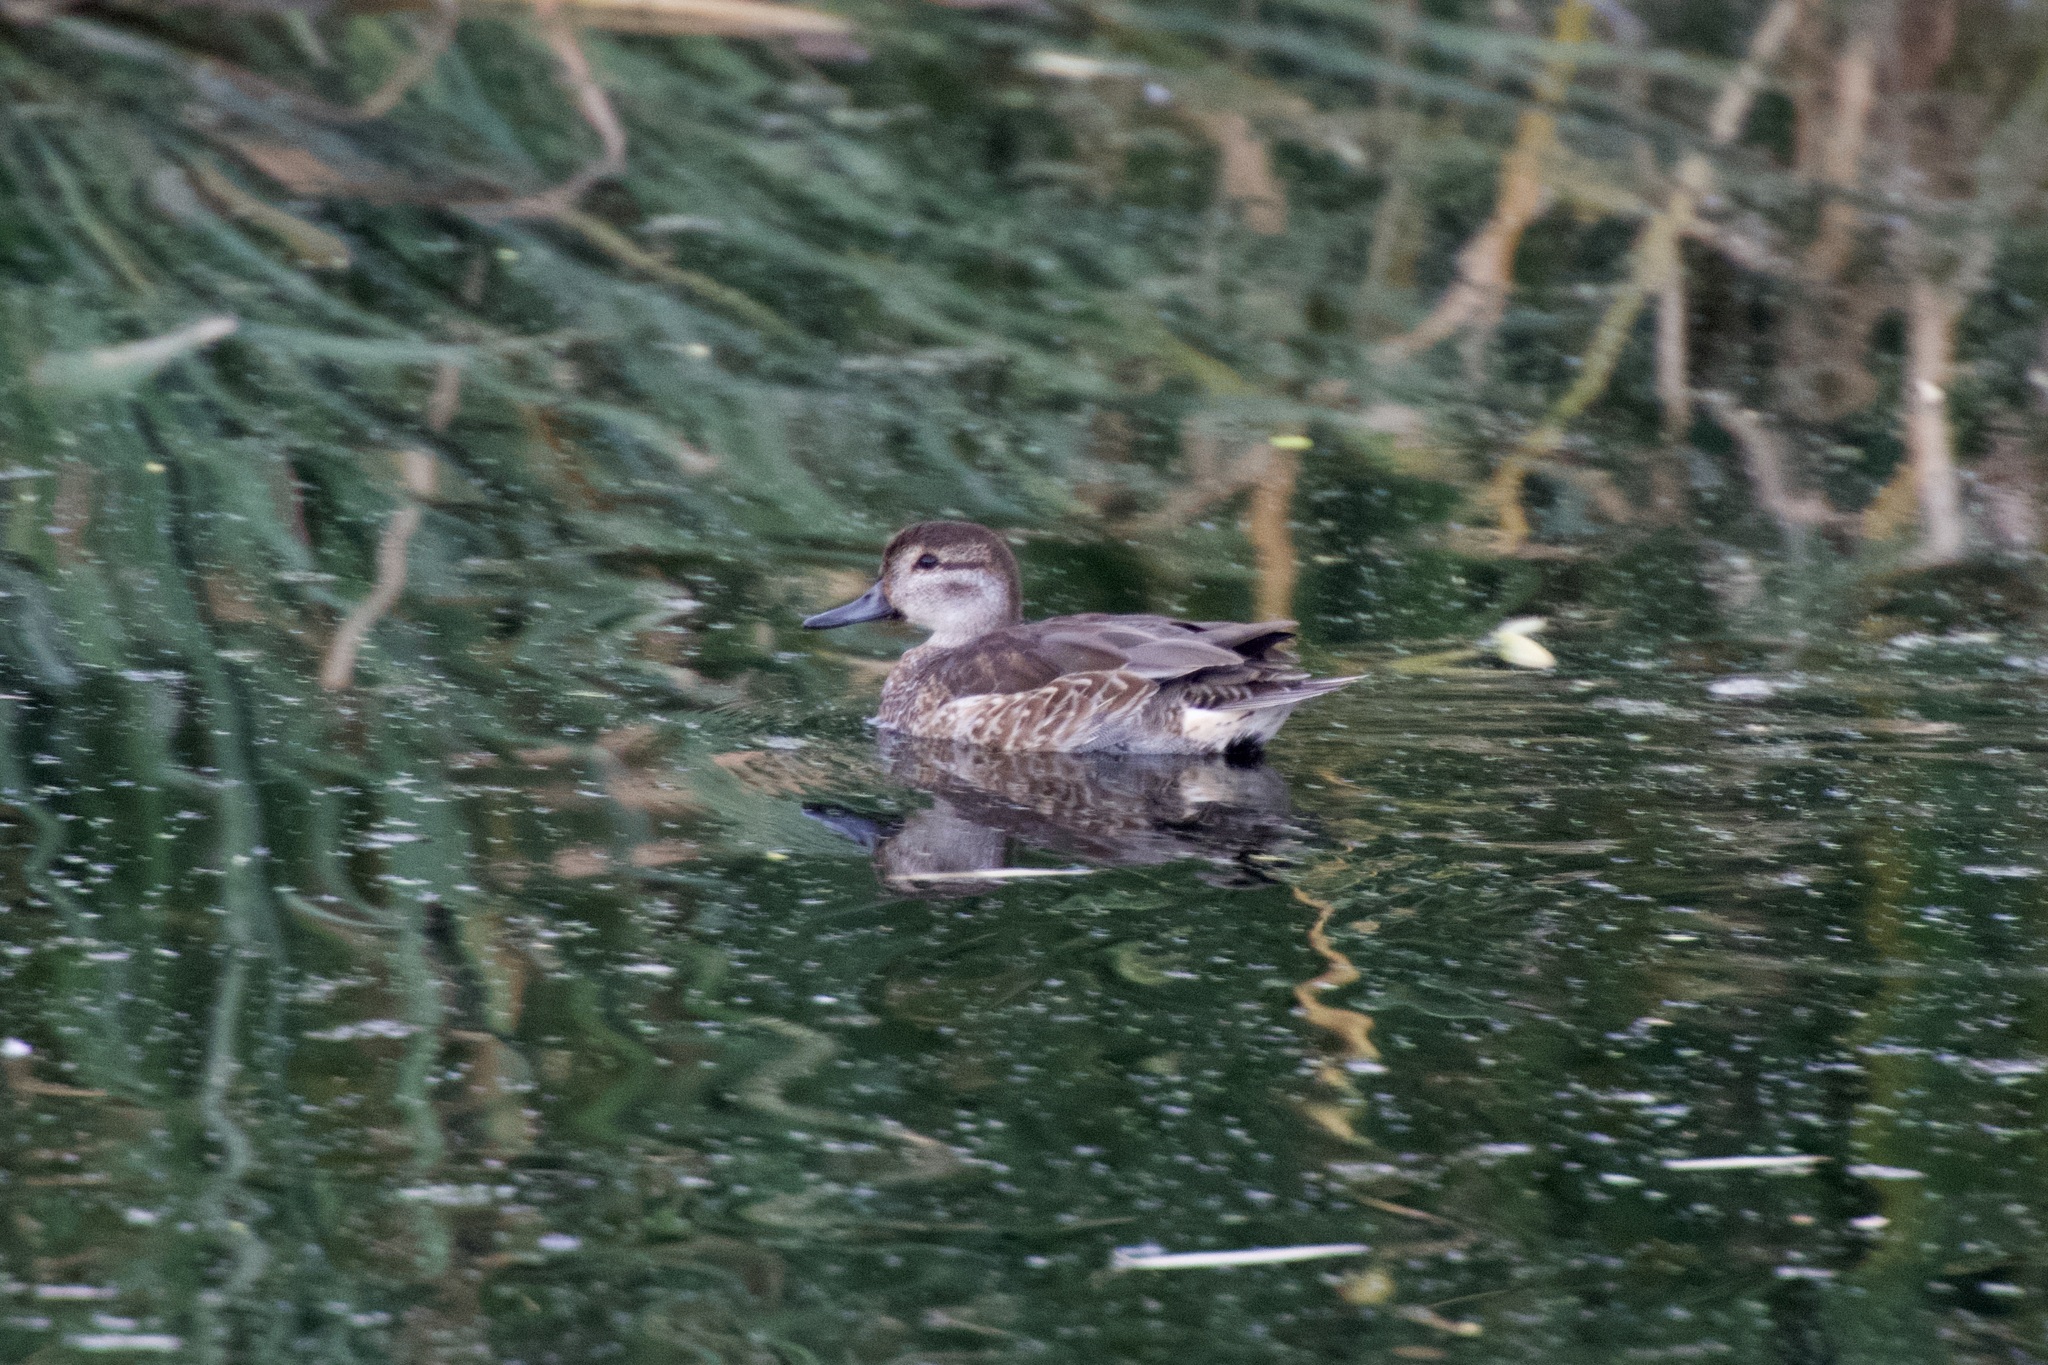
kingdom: Animalia
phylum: Chordata
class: Aves
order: Anseriformes
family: Anatidae
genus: Anas
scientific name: Anas crecca
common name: Eurasian teal
